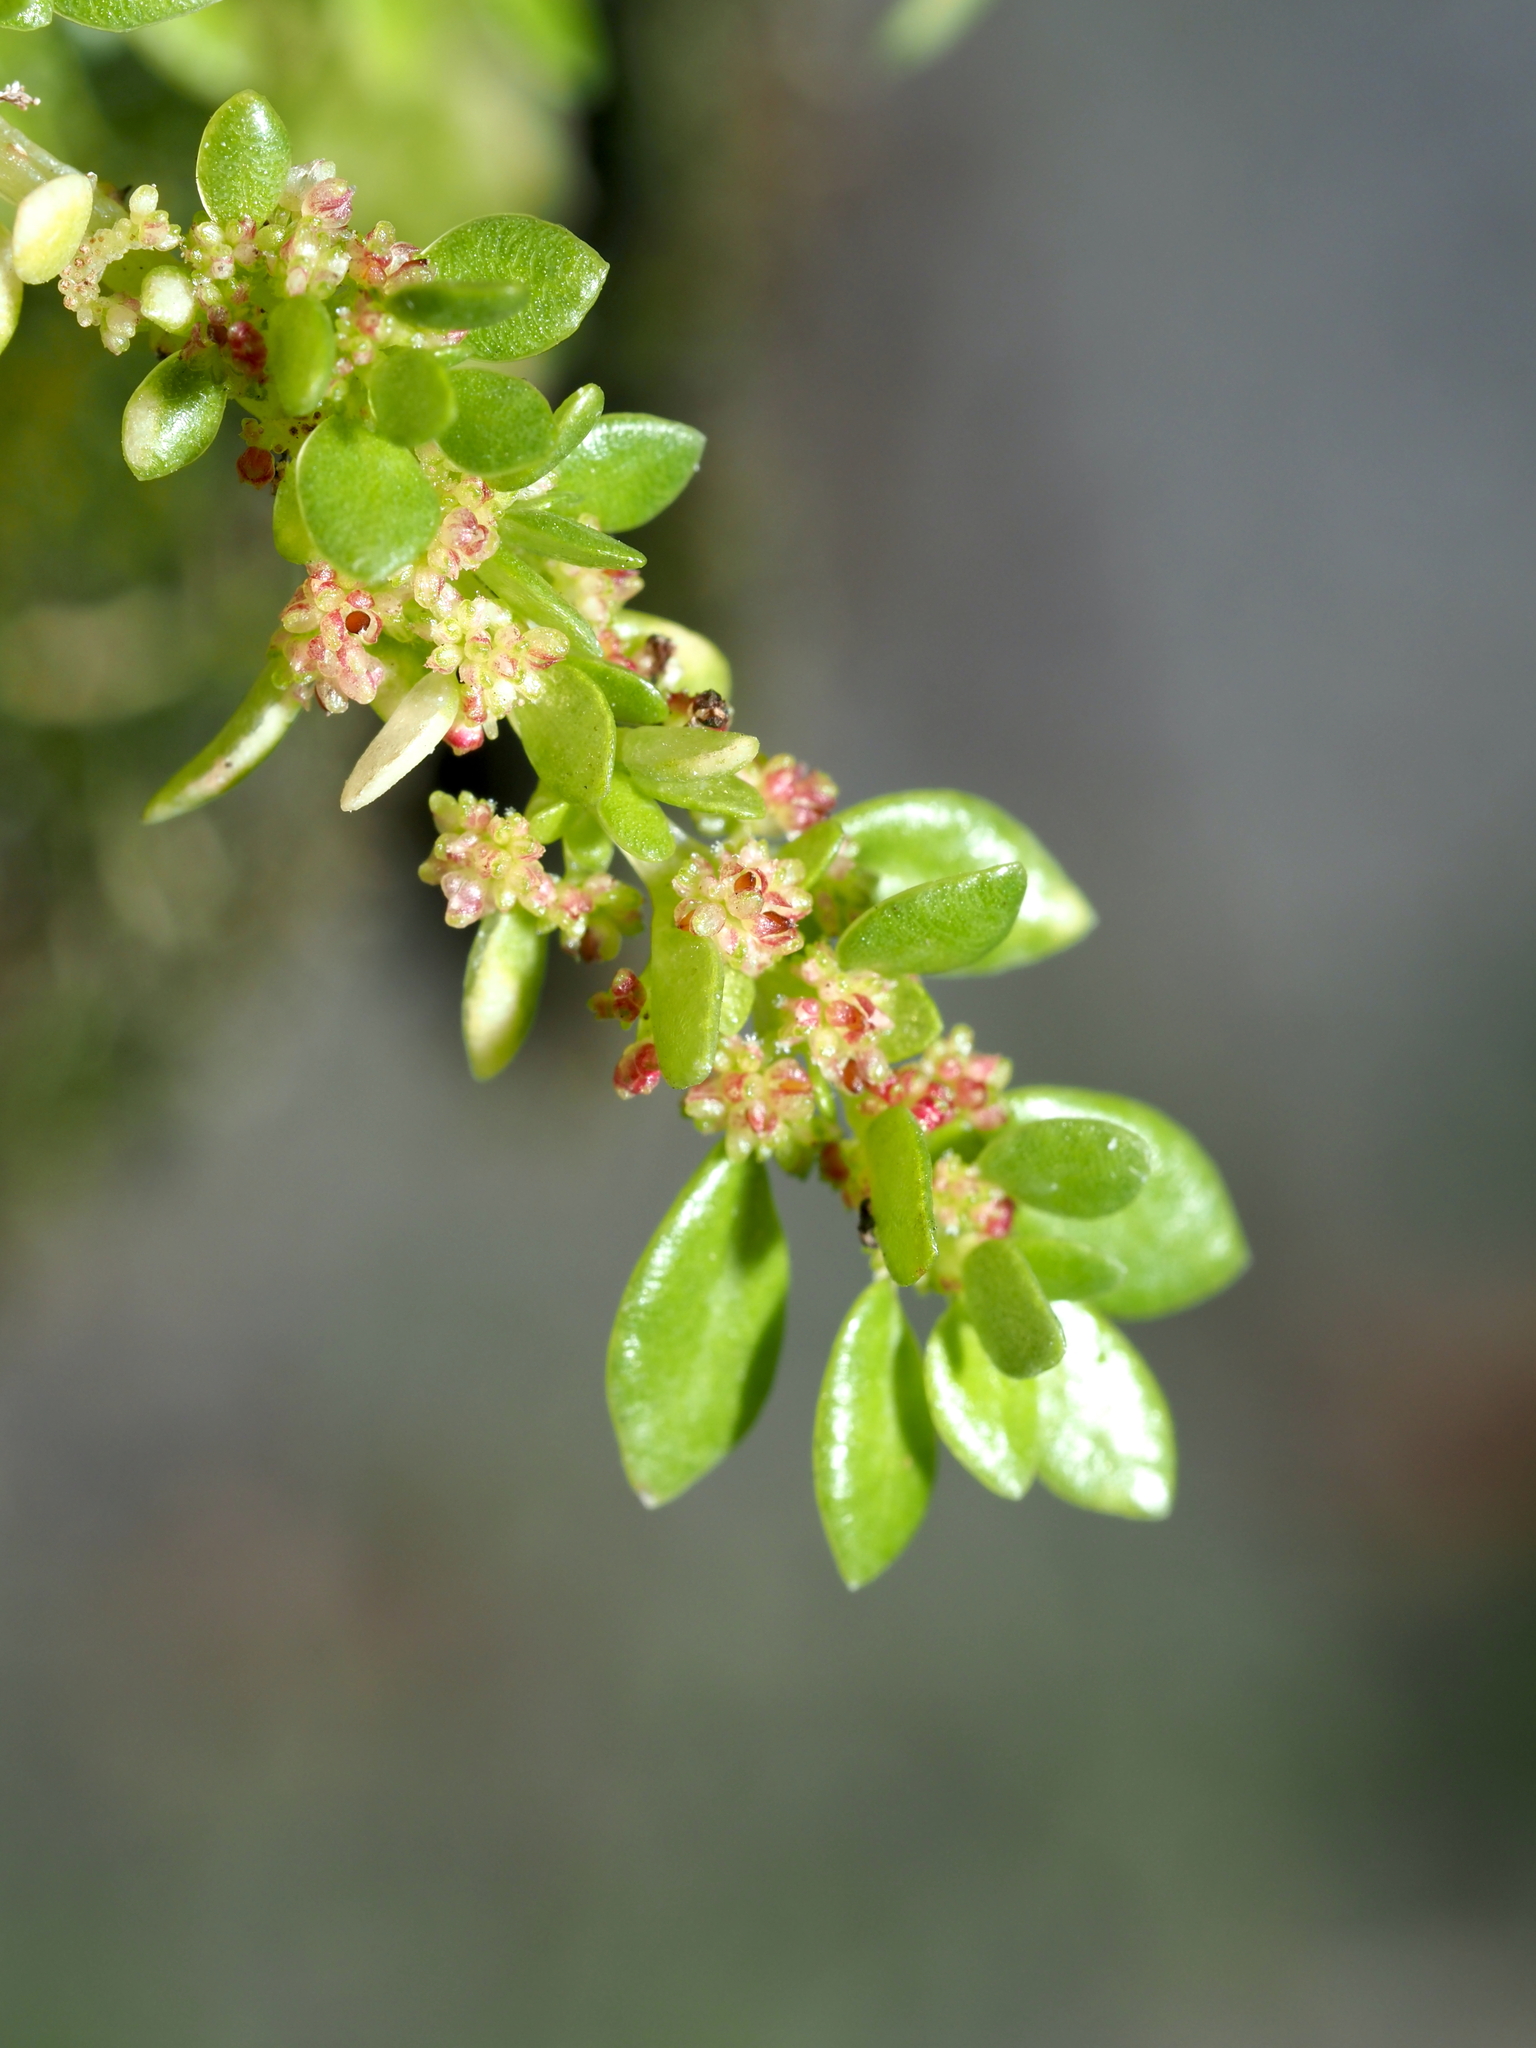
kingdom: Plantae
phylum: Tracheophyta
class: Magnoliopsida
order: Rosales
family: Urticaceae
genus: Pilea
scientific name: Pilea microphylla
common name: Artillery-plant
